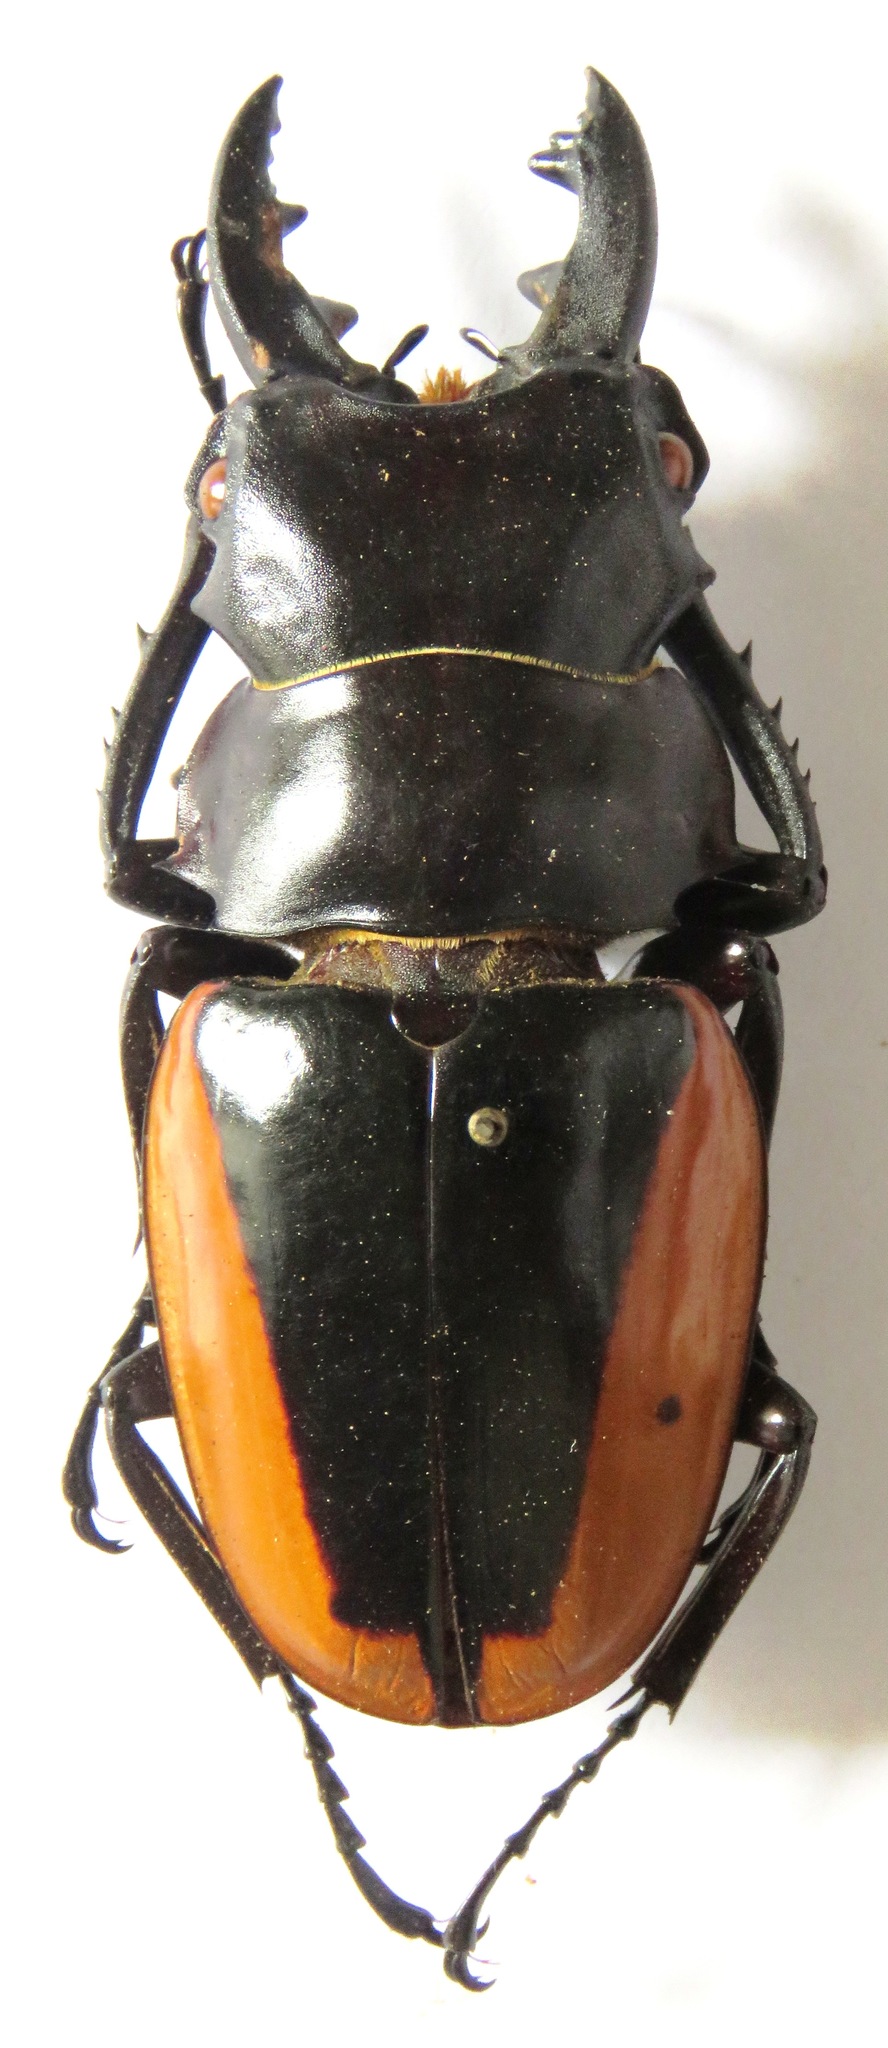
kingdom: Animalia
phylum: Arthropoda
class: Insecta
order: Coleoptera
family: Lucanidae
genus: Odontolabis
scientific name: Odontolabis cuvera
